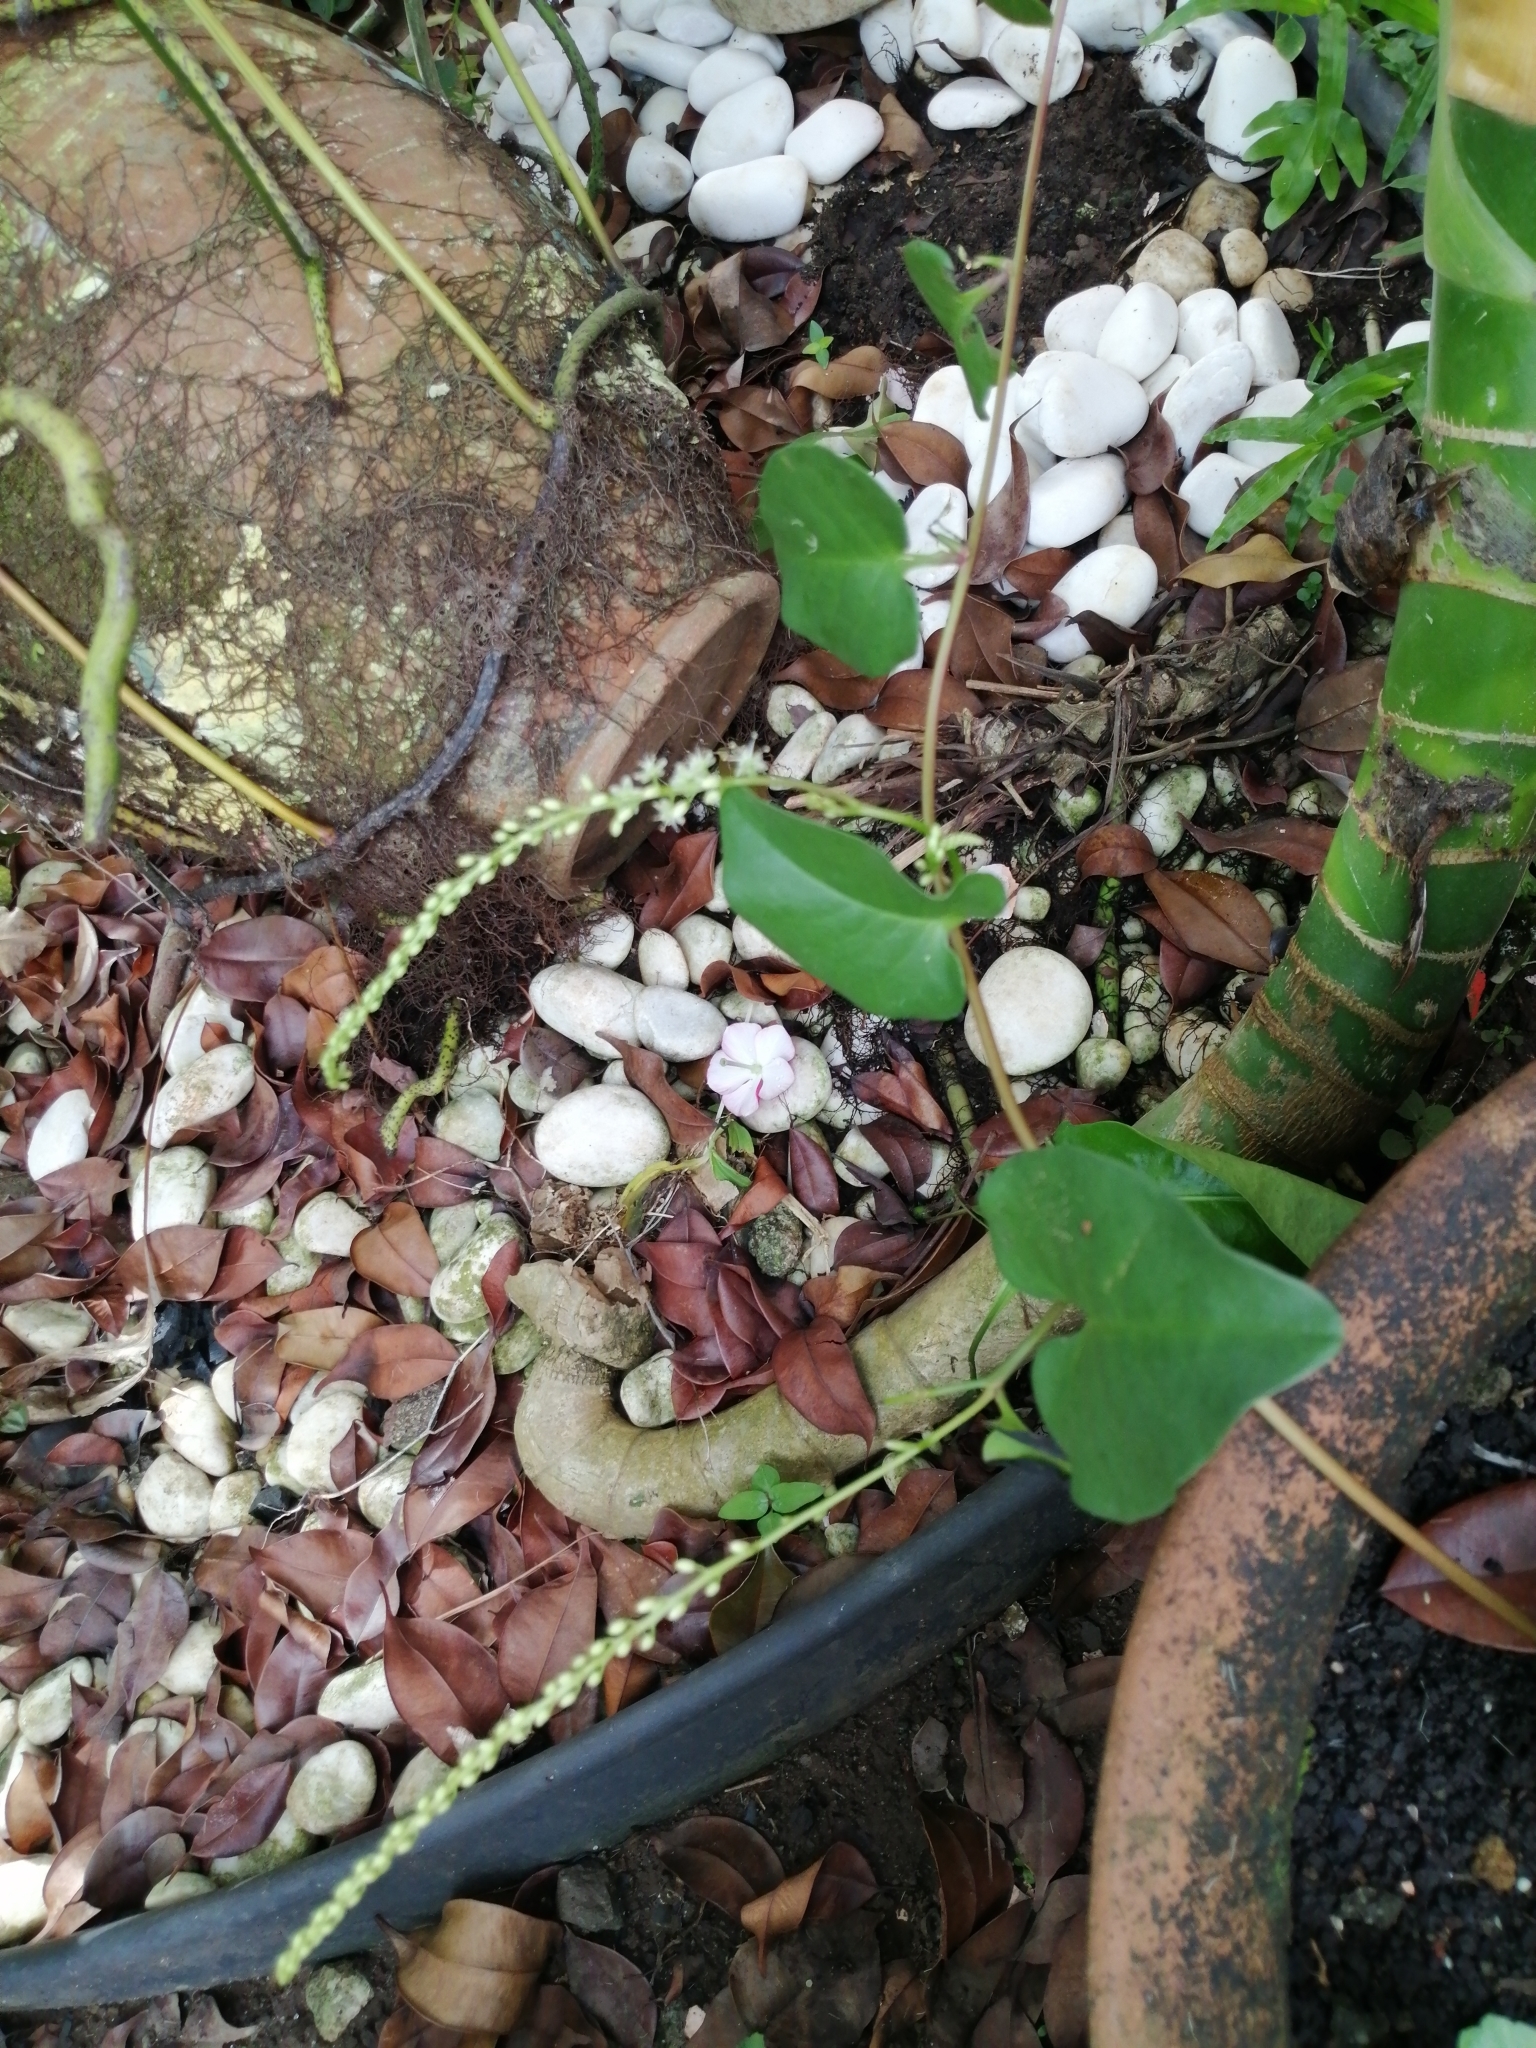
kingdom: Plantae
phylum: Tracheophyta
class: Magnoliopsida
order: Caryophyllales
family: Basellaceae
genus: Anredera
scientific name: Anredera cordifolia
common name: Heartleaf madeiravine
